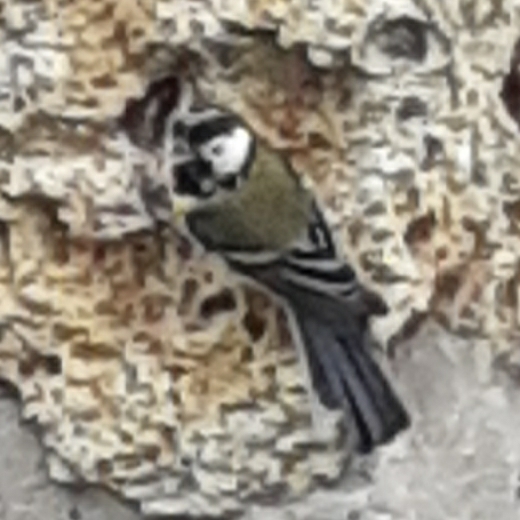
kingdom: Animalia
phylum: Chordata
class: Aves
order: Passeriformes
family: Paridae
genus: Parus
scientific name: Parus major
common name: Great tit
